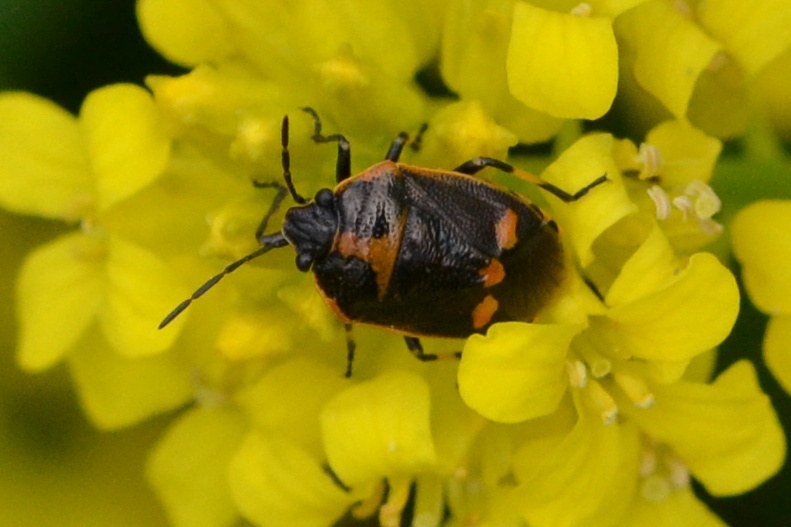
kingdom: Animalia
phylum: Arthropoda
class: Insecta
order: Hemiptera
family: Pentatomidae
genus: Eurydema
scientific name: Eurydema oleracea
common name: Cabbage bug
